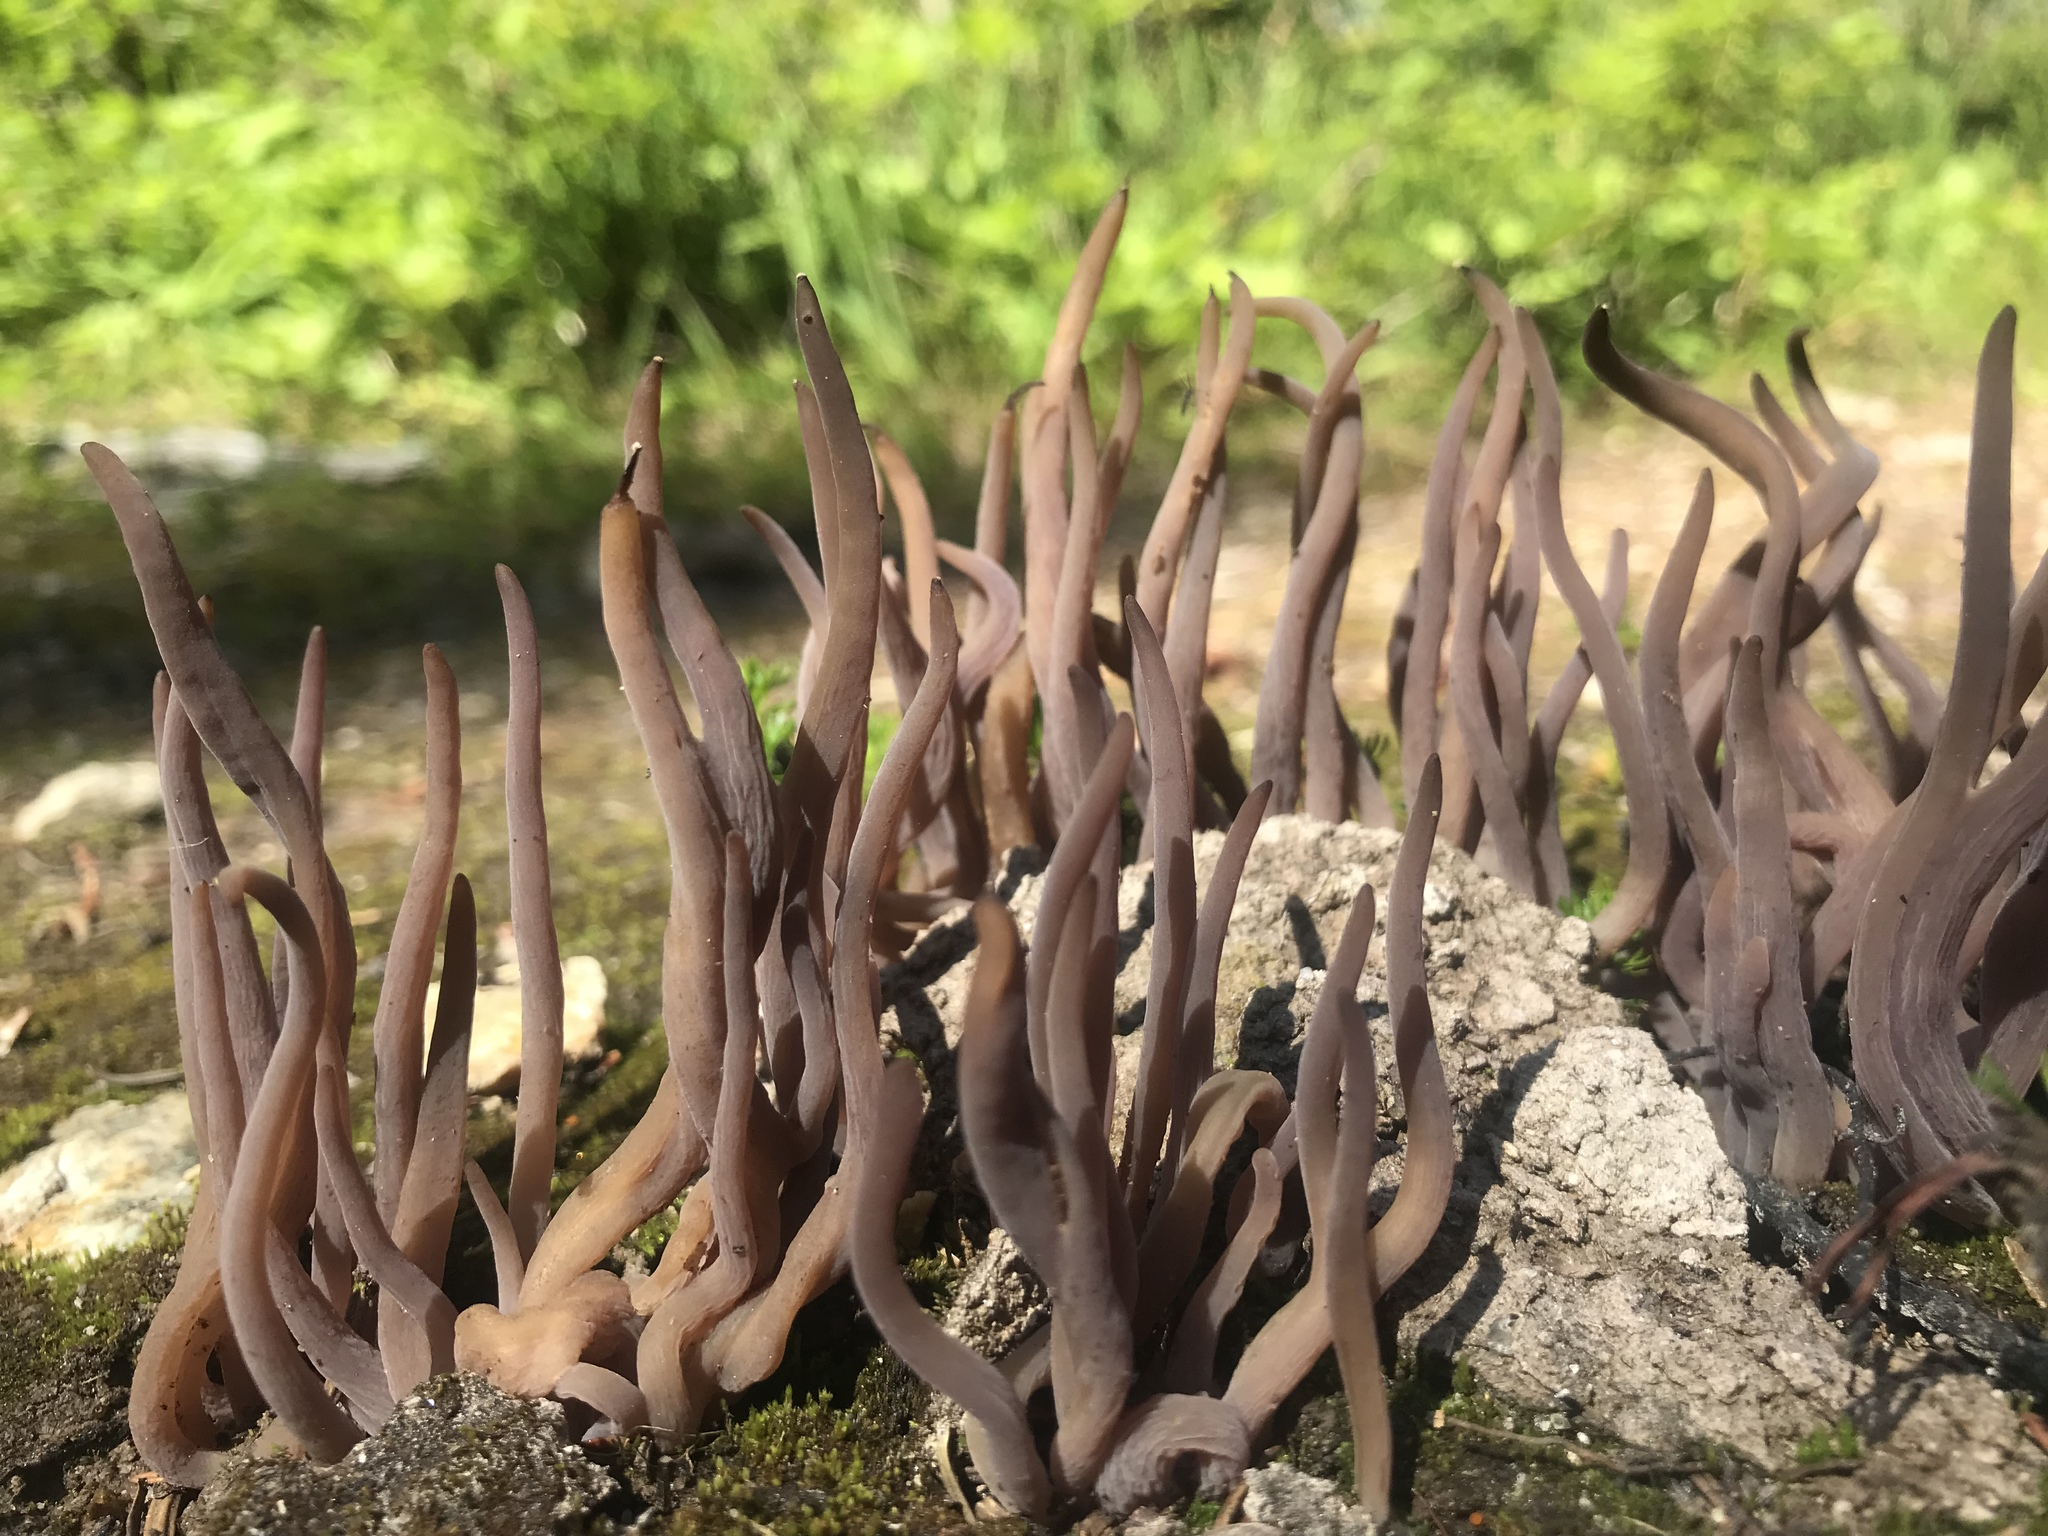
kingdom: Fungi
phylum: Basidiomycota
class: Agaricomycetes
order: Hymenochaetales
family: Rickenellaceae
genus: Alloclavaria
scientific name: Alloclavaria purpurea
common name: Purple spindles
